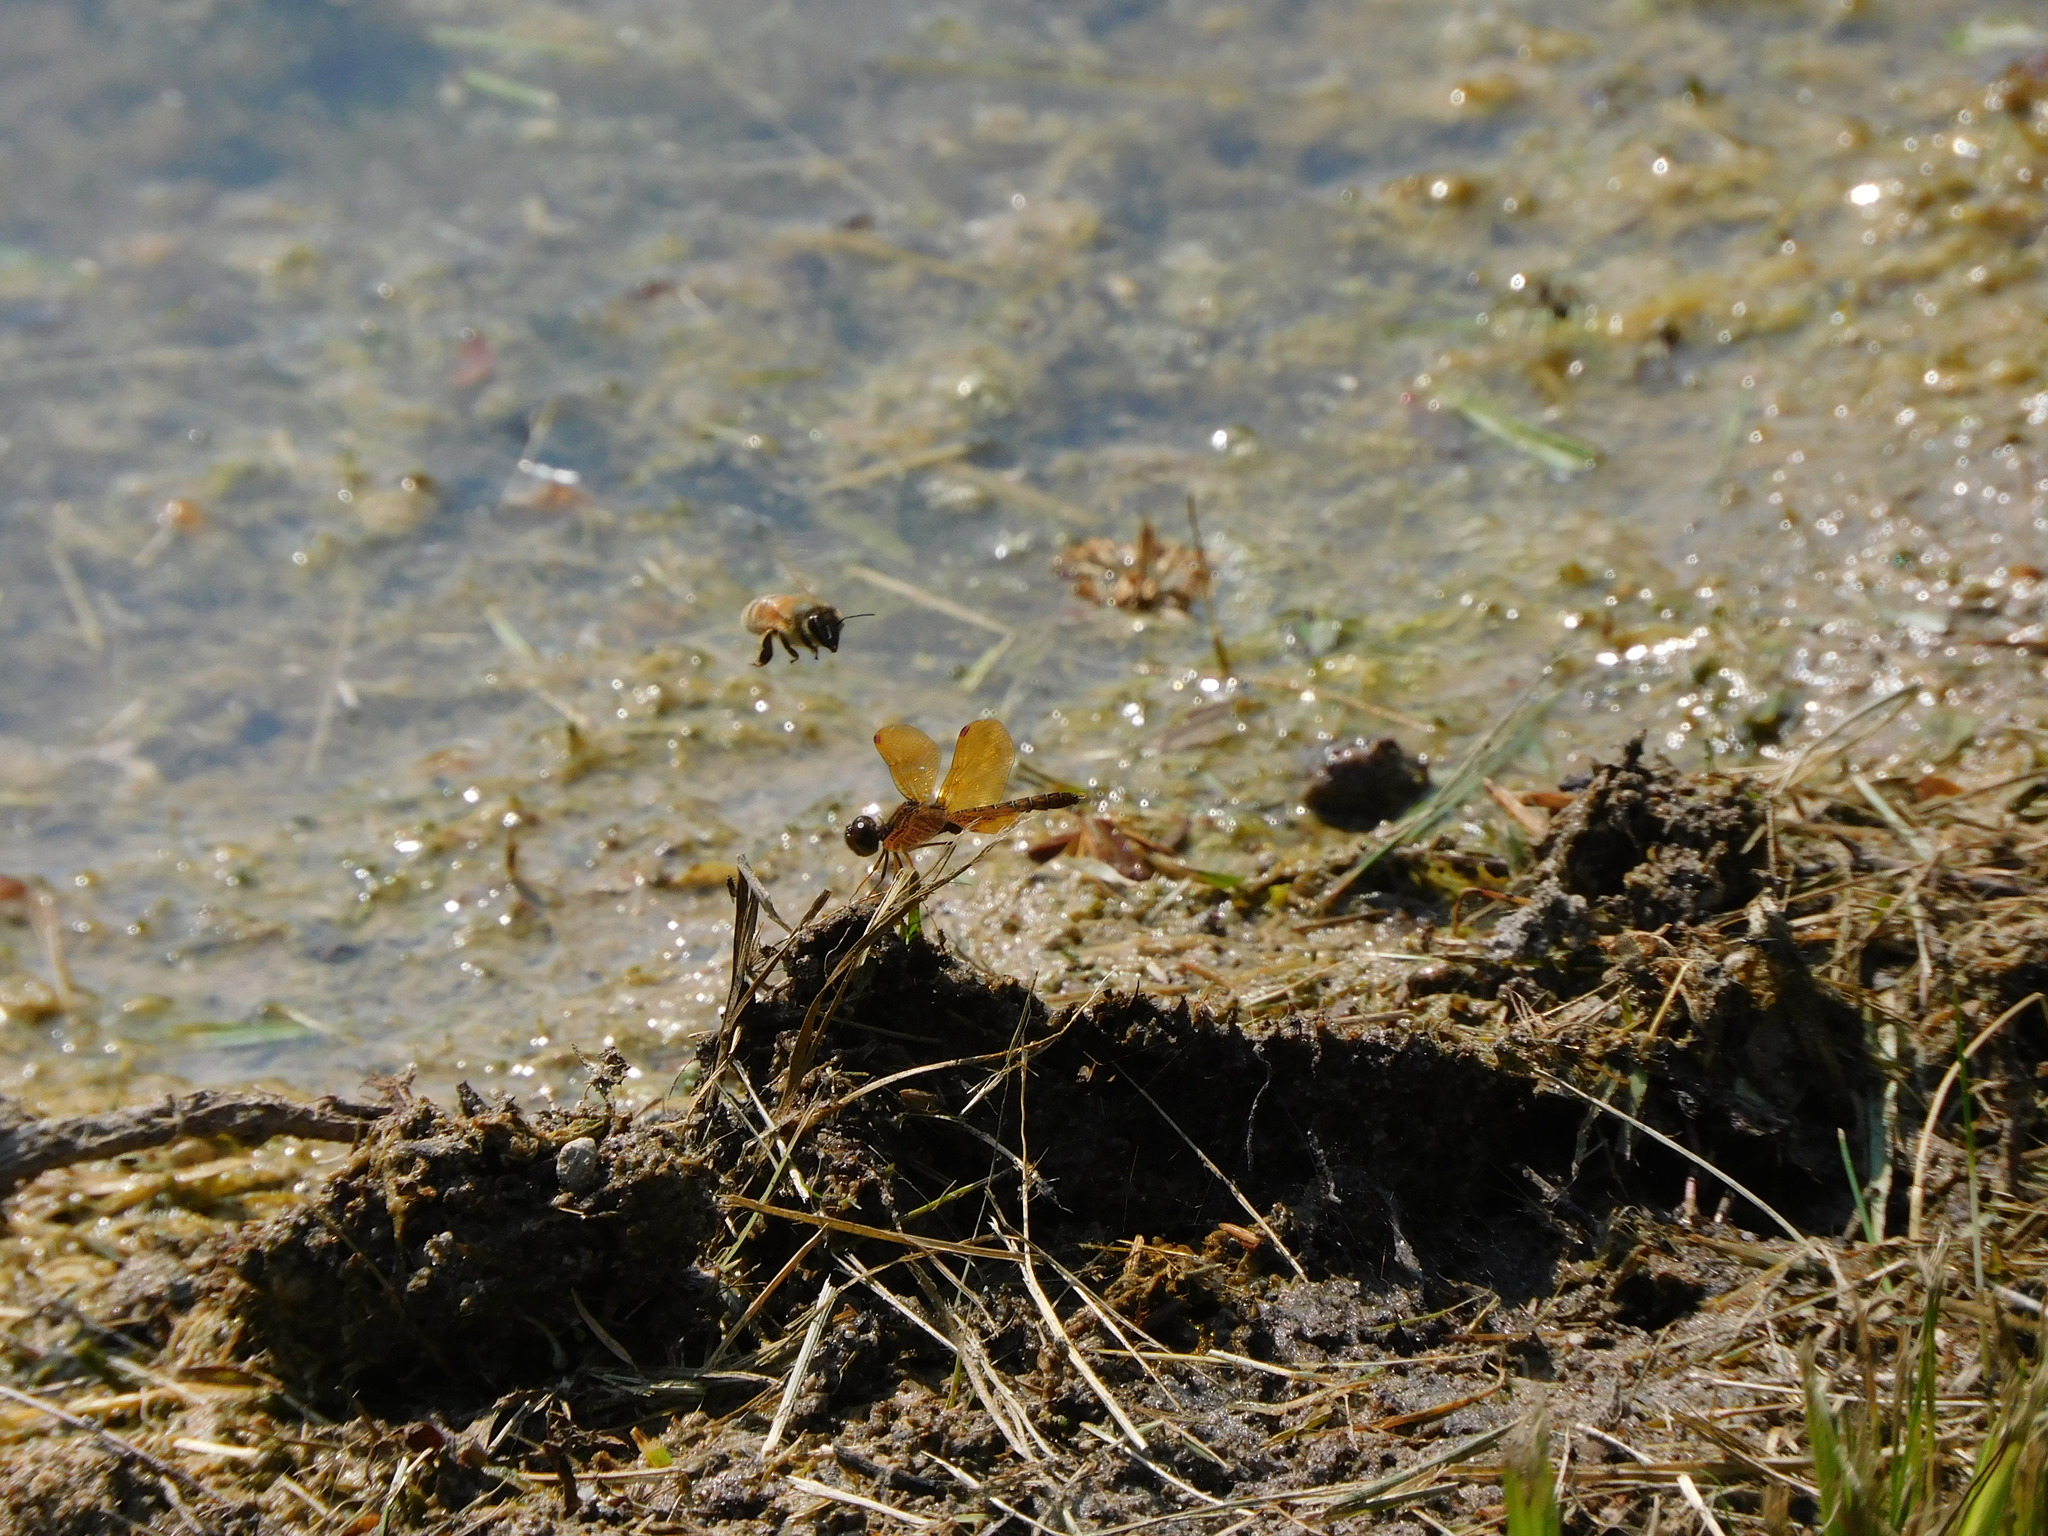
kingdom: Animalia
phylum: Arthropoda
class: Insecta
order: Hymenoptera
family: Apidae
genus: Apis
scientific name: Apis mellifera
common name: Honey bee
